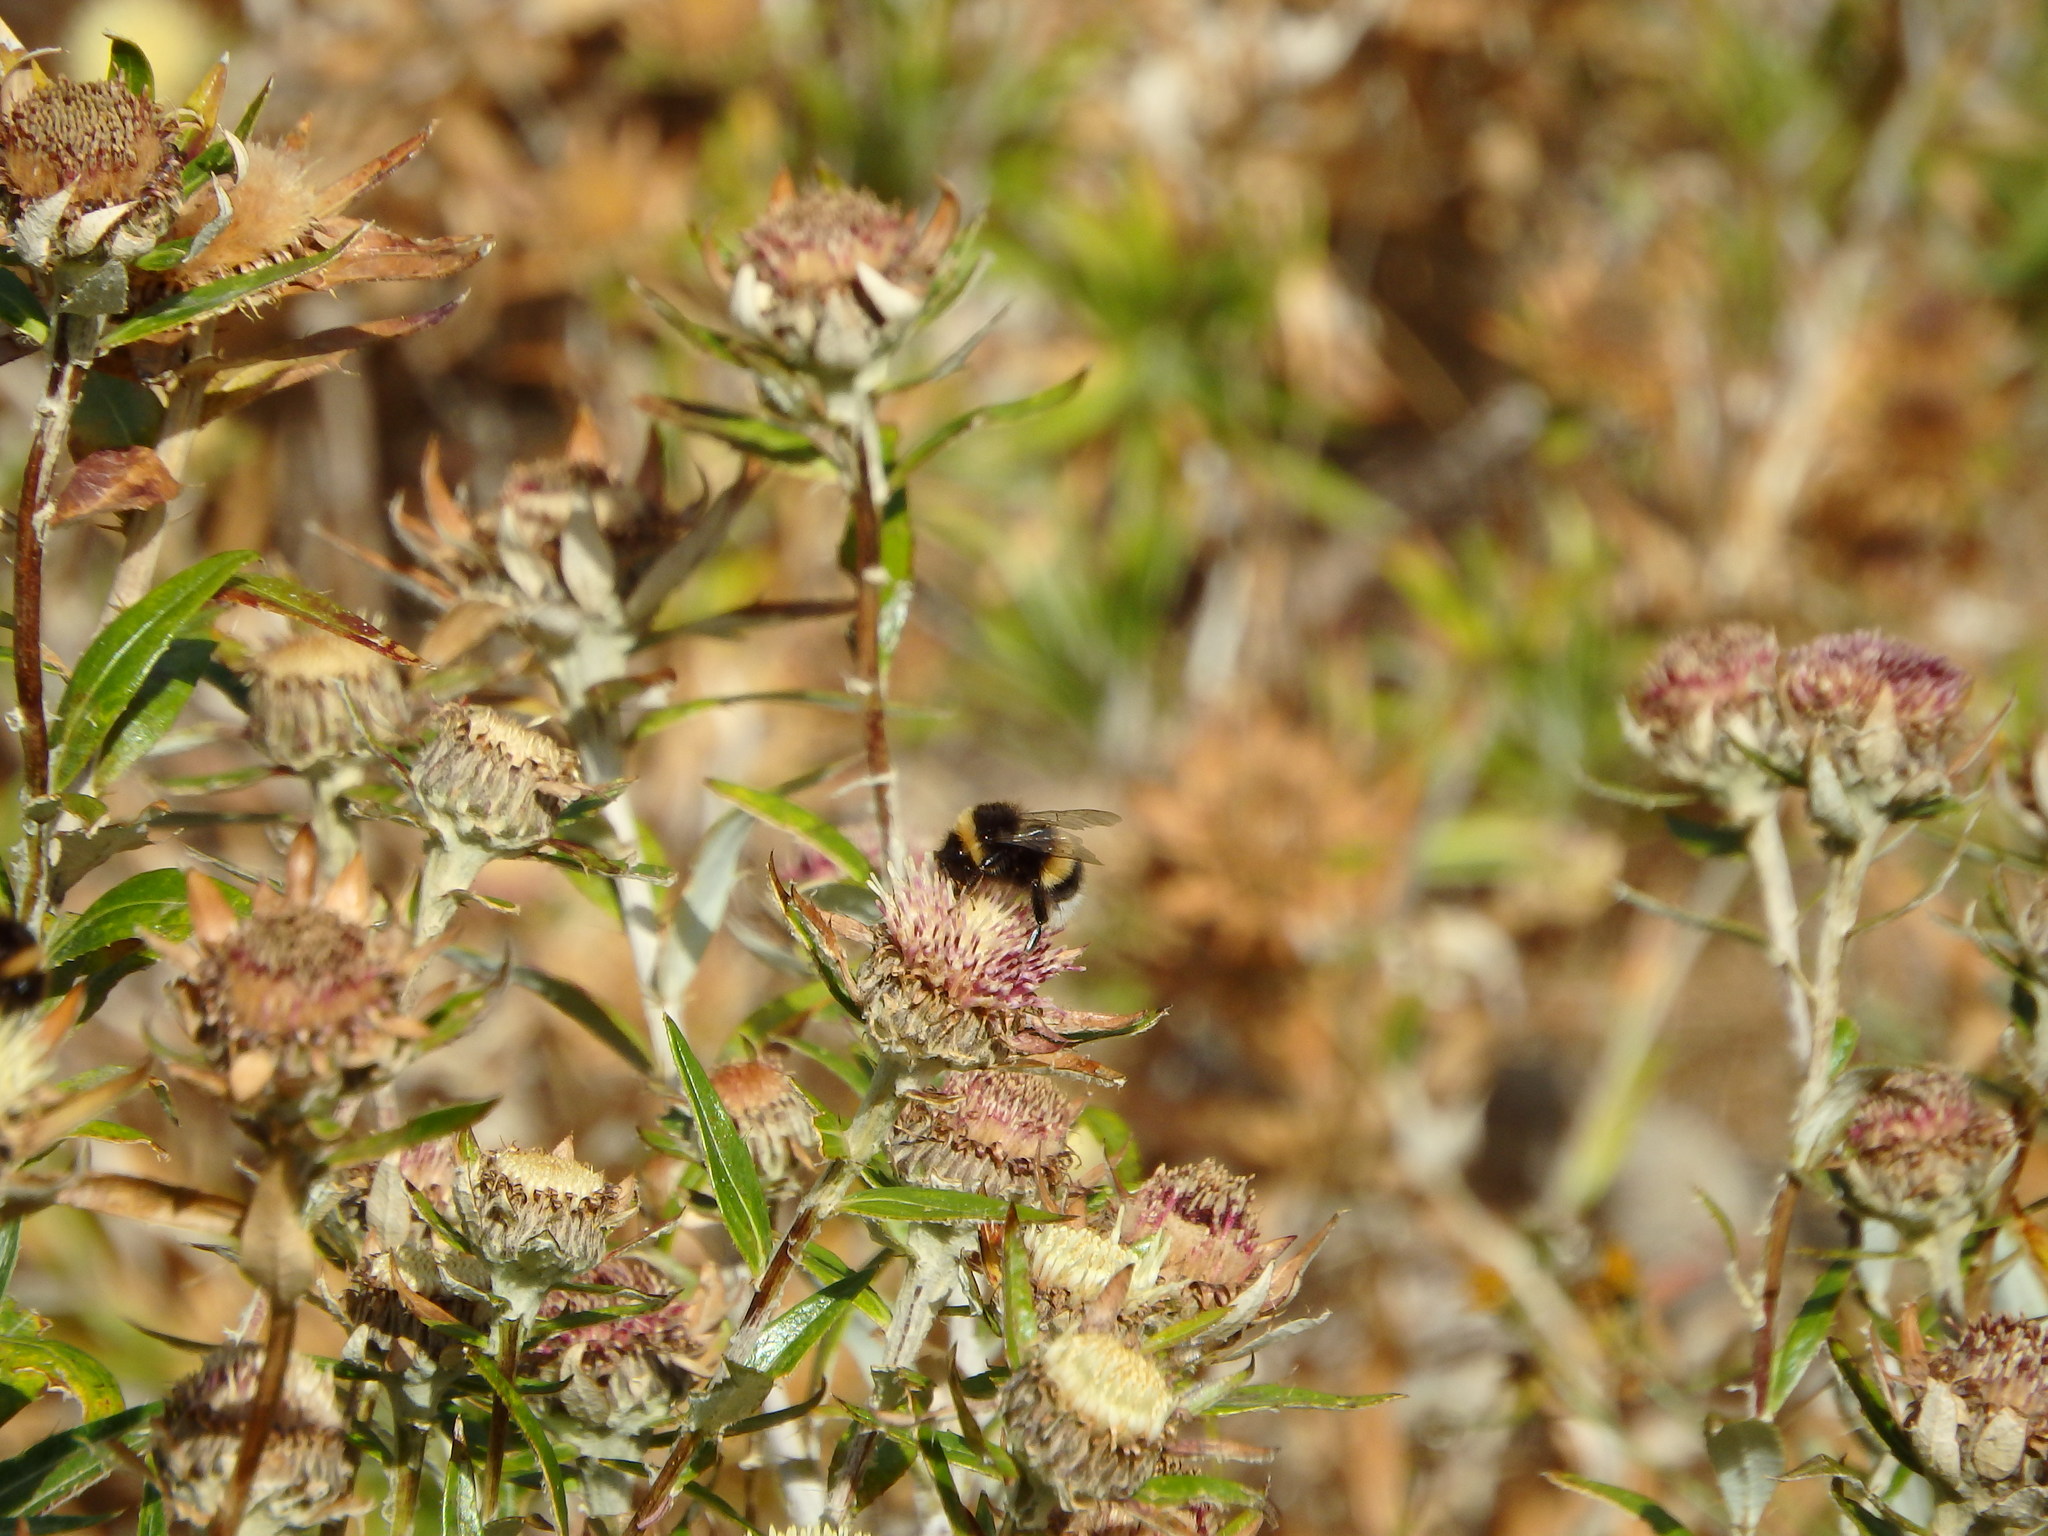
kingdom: Animalia
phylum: Arthropoda
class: Insecta
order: Hymenoptera
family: Apidae
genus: Bombus
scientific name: Bombus terrestris
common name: Buff-tailed bumblebee
